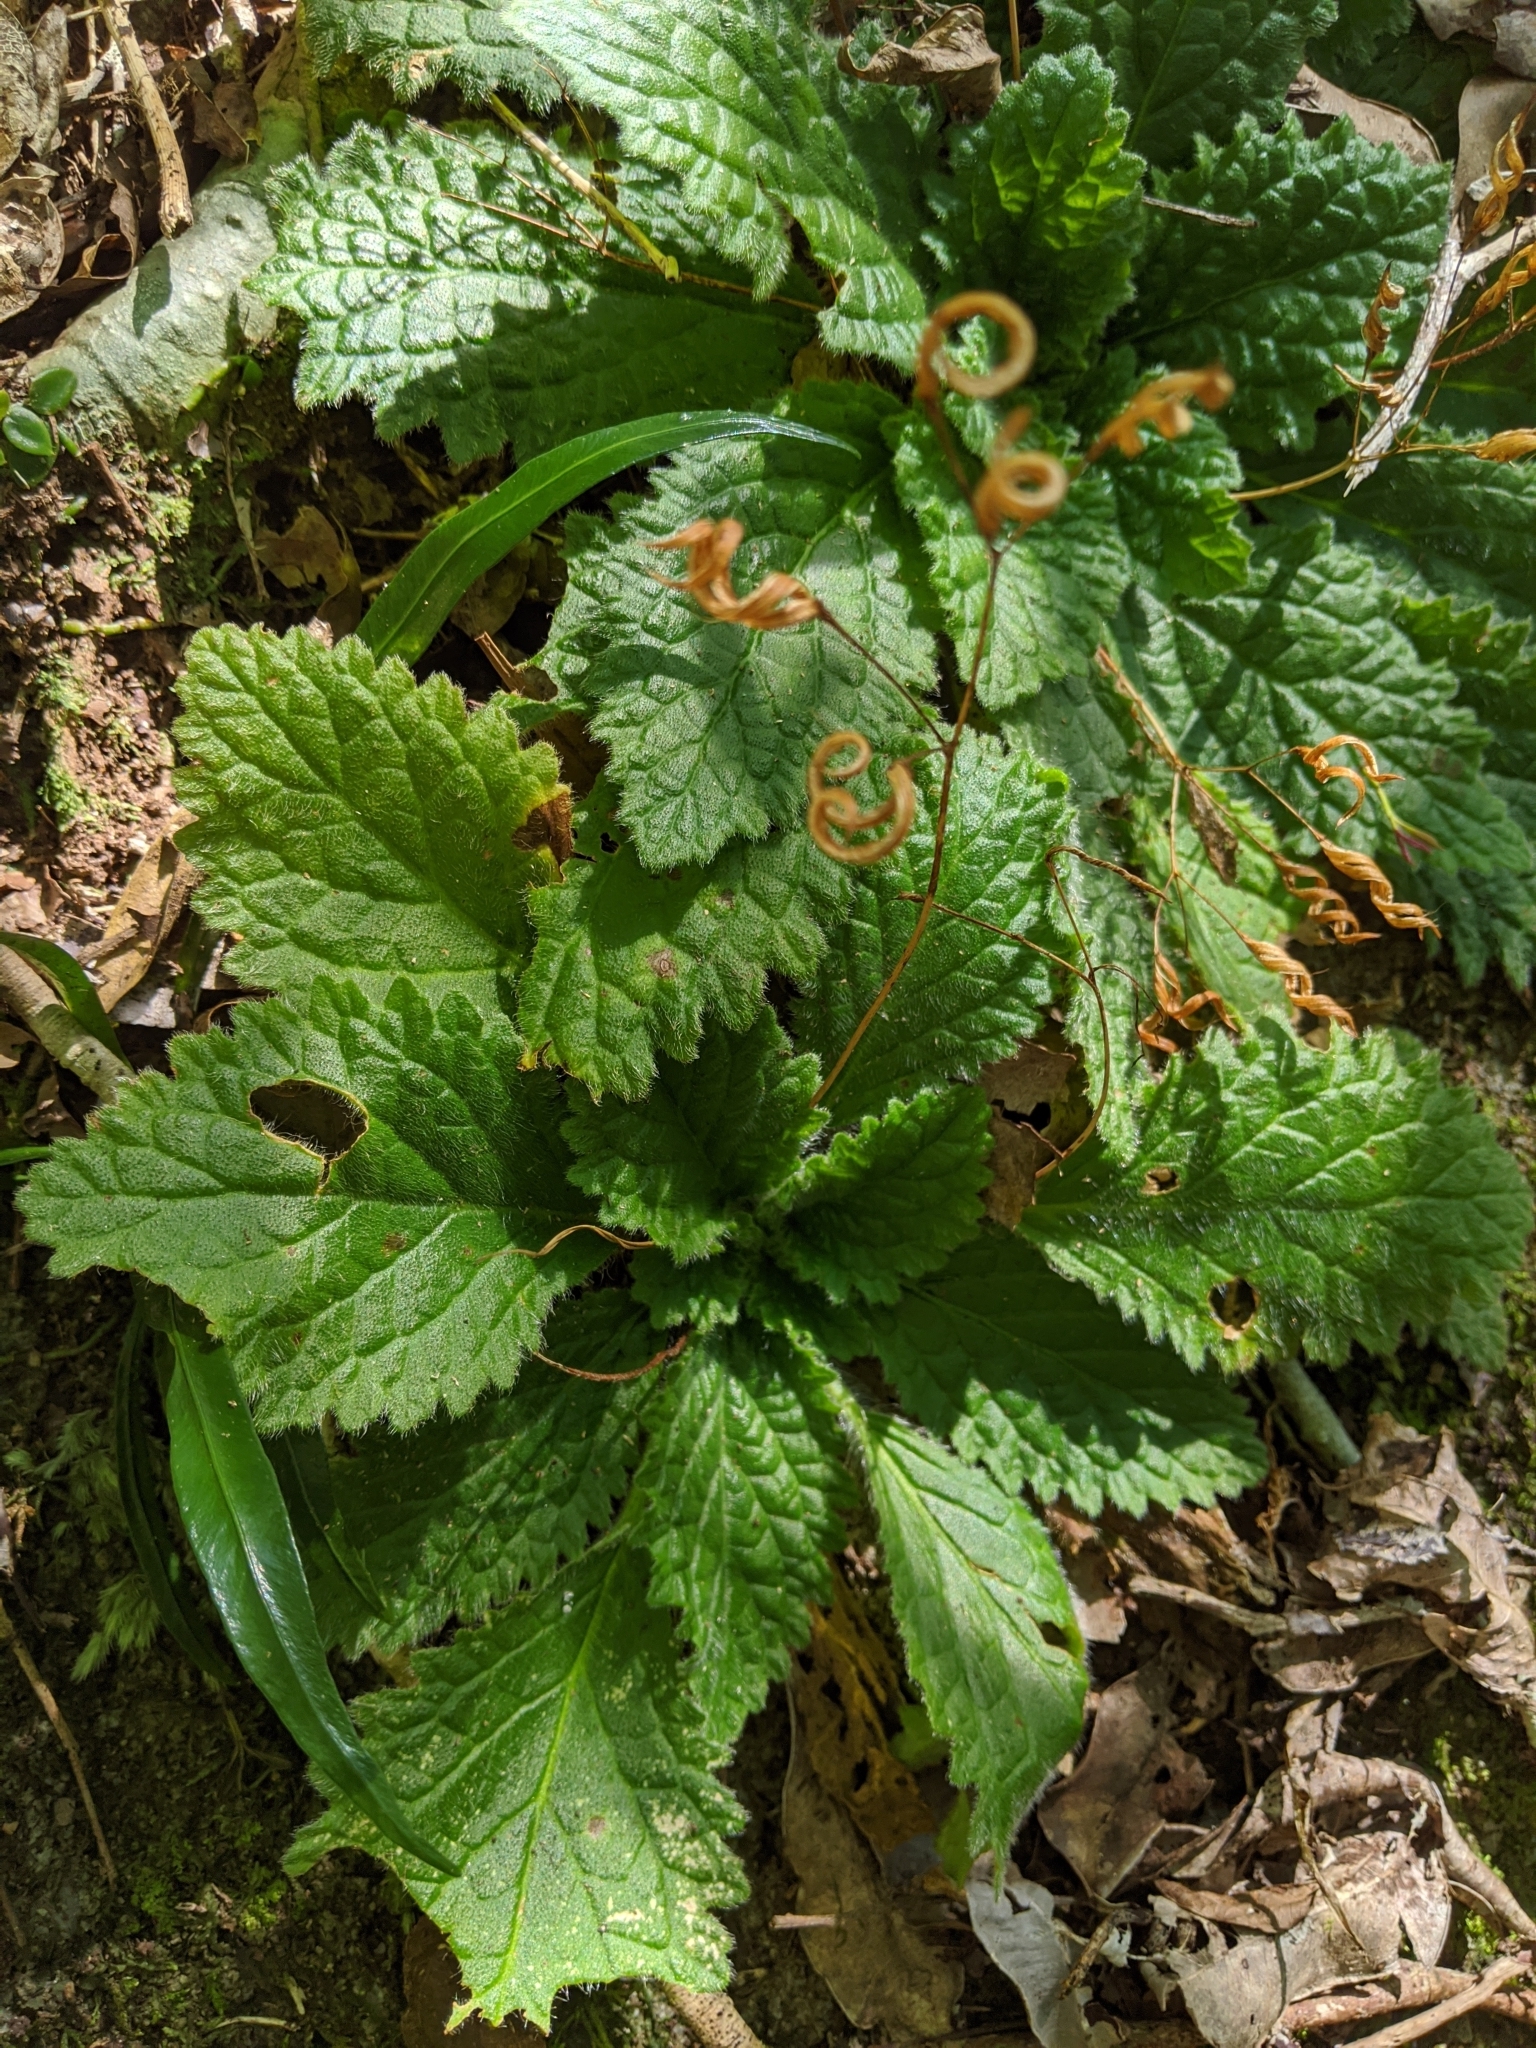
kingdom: Plantae
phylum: Tracheophyta
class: Magnoliopsida
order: Lamiales
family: Gesneriaceae
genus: Boea
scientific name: Boea hygroscopica
